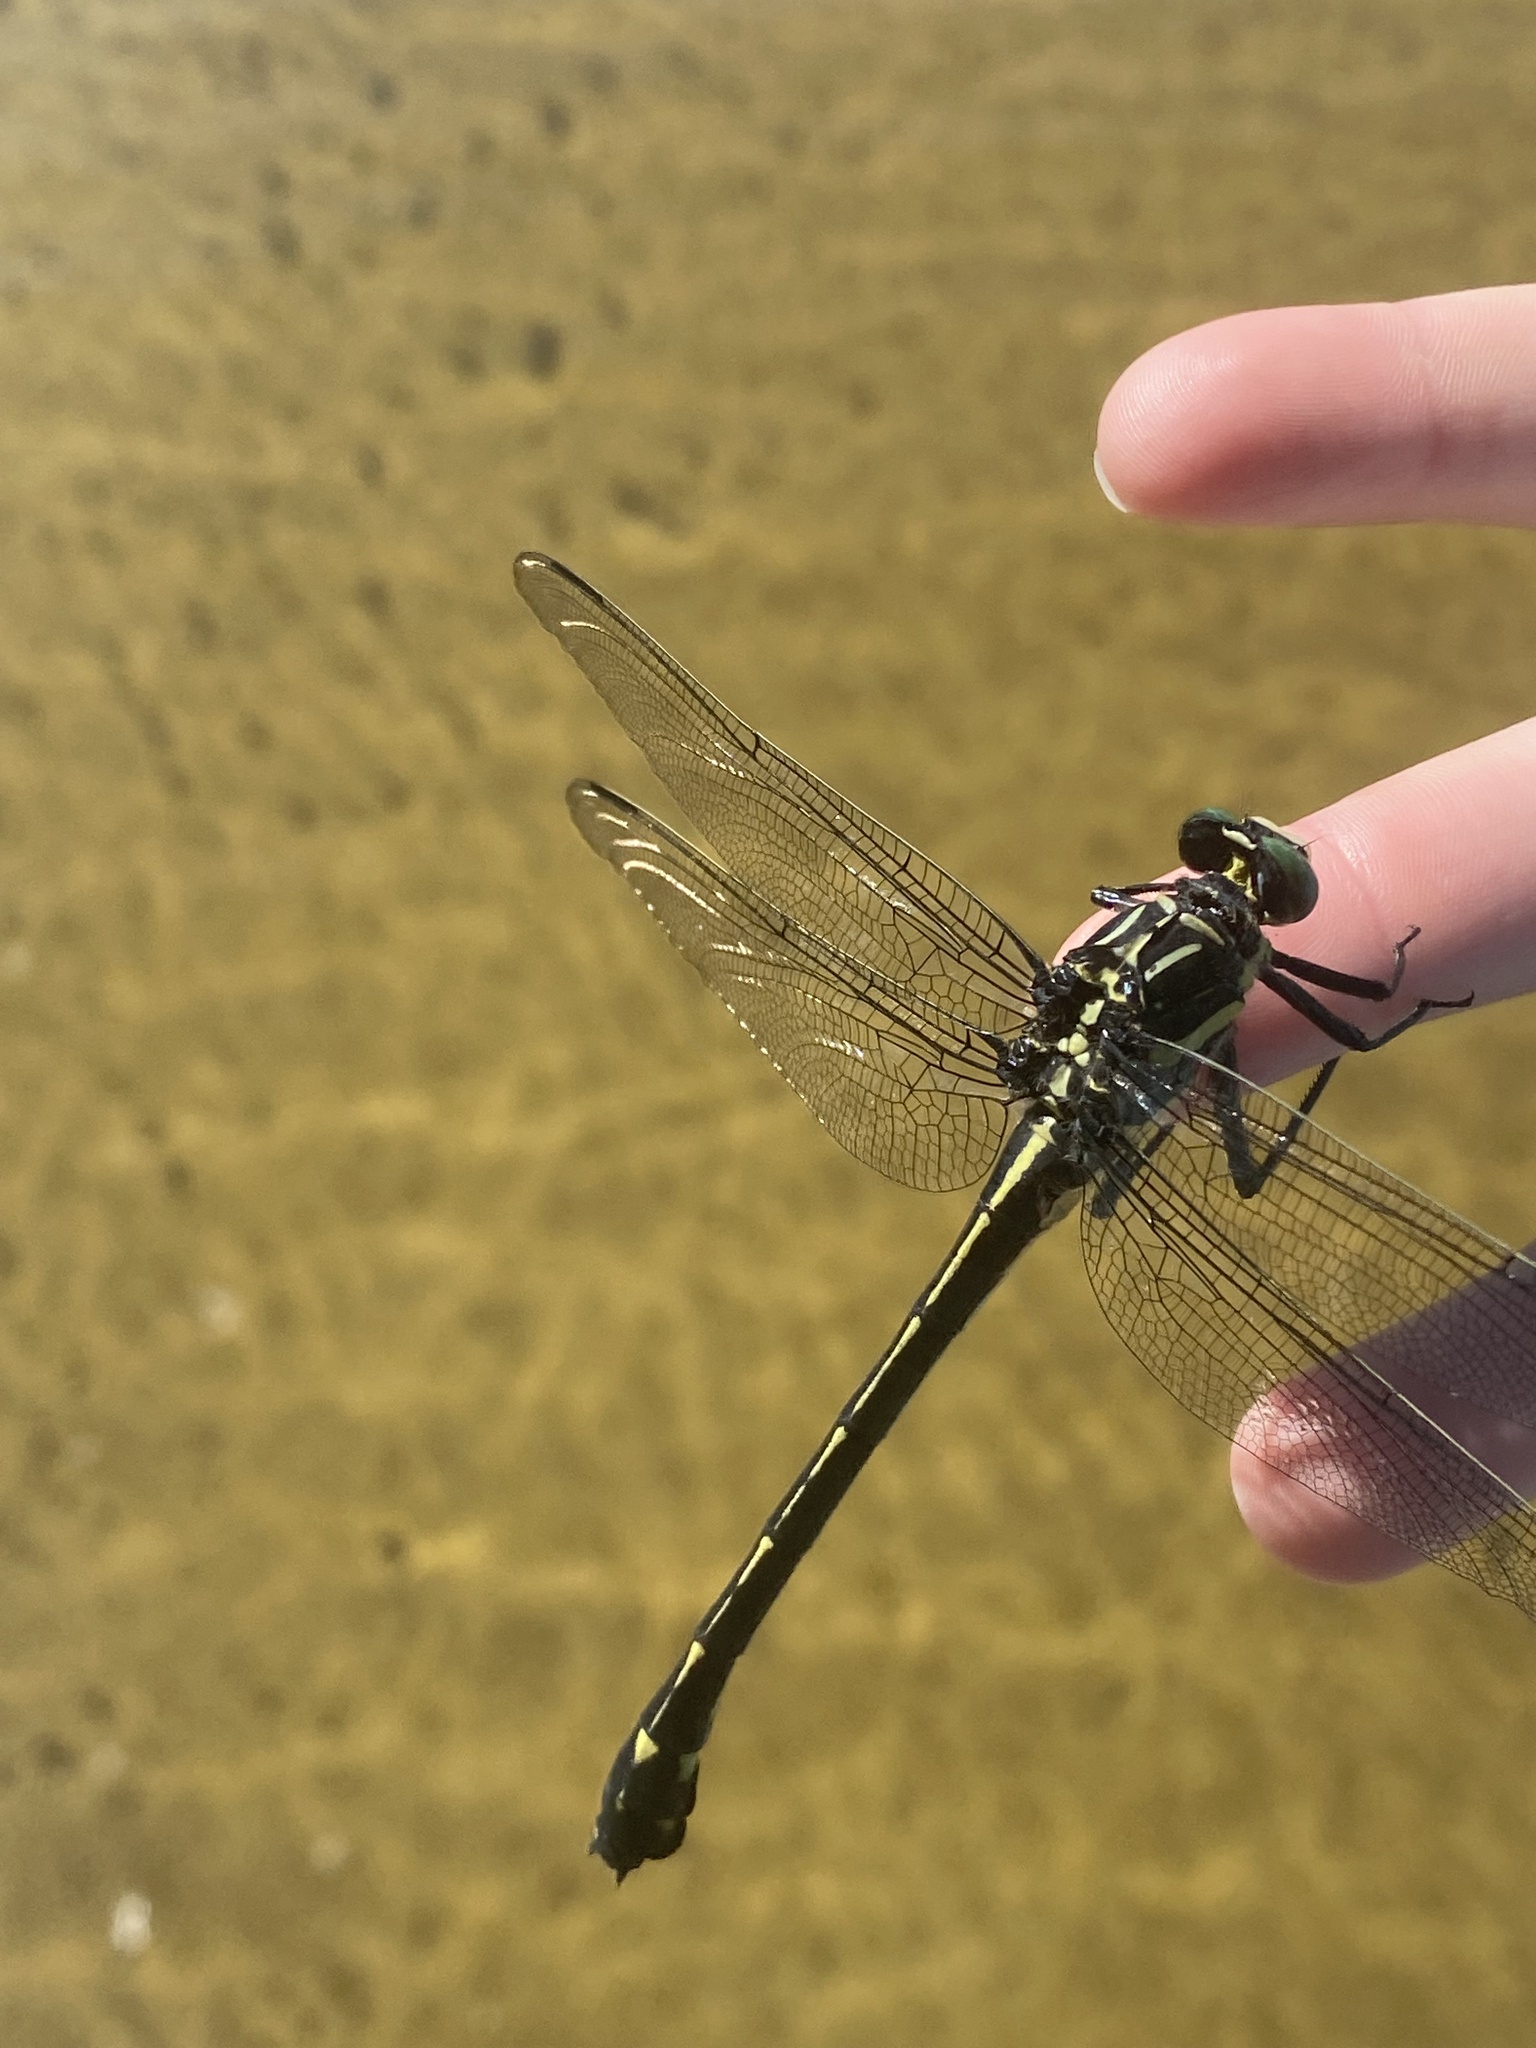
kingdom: Animalia
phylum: Arthropoda
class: Insecta
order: Odonata
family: Gomphidae
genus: Hagenius
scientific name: Hagenius brevistylus
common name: Dragonhunter
